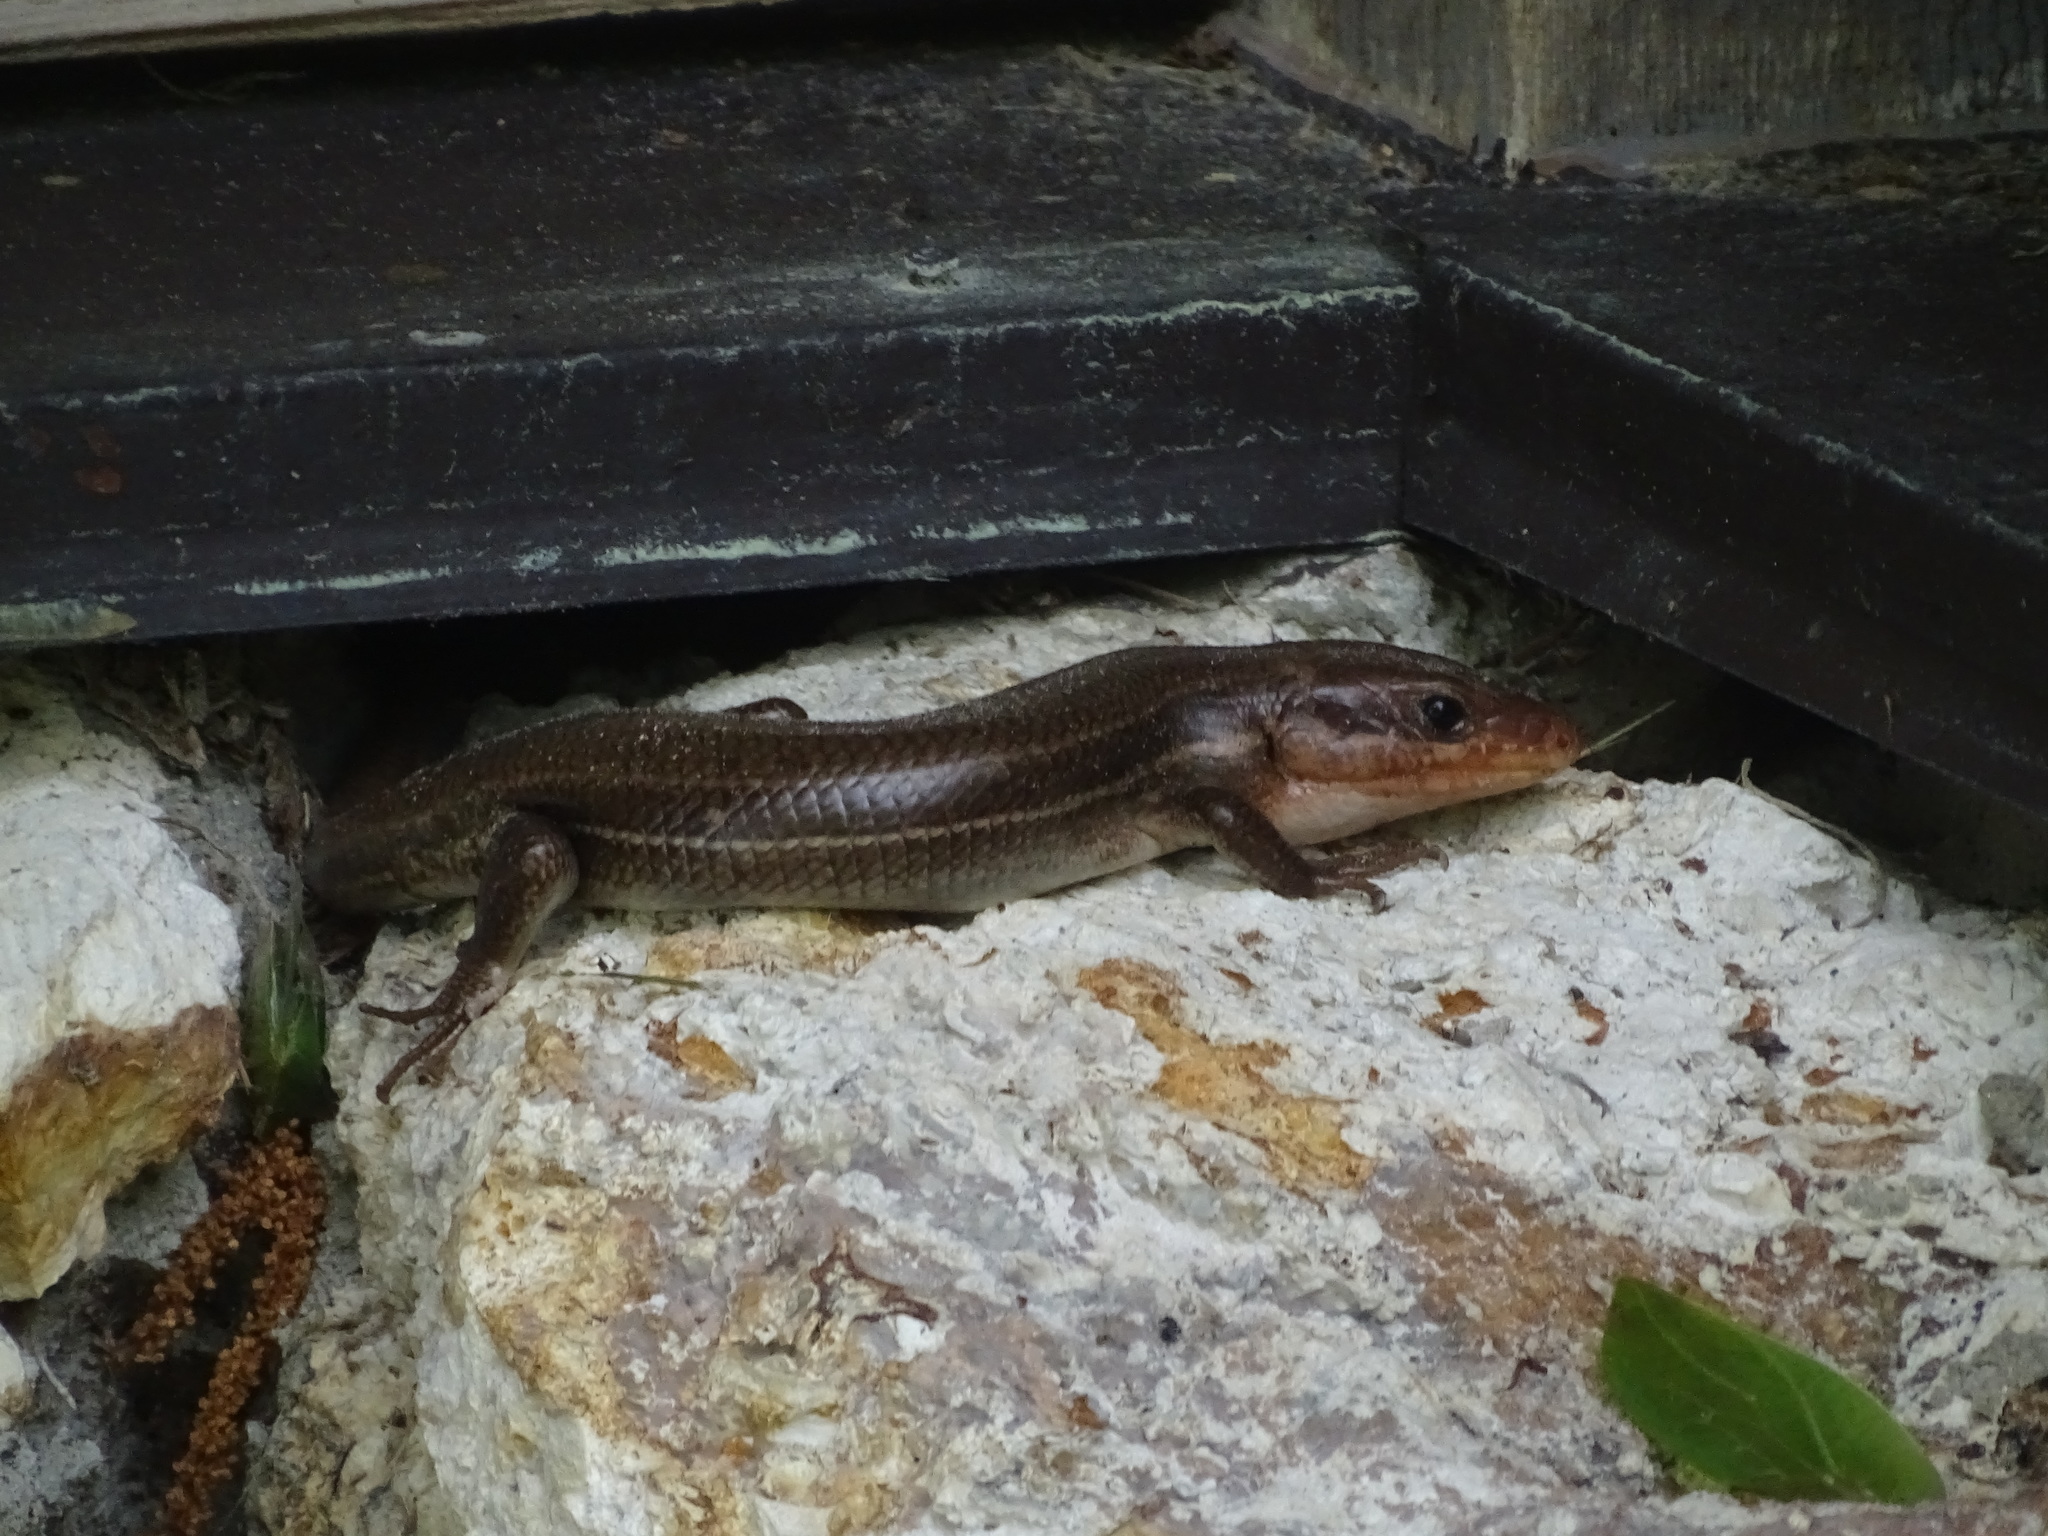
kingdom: Animalia
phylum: Chordata
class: Squamata
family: Scincidae
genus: Plestiodon
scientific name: Plestiodon
